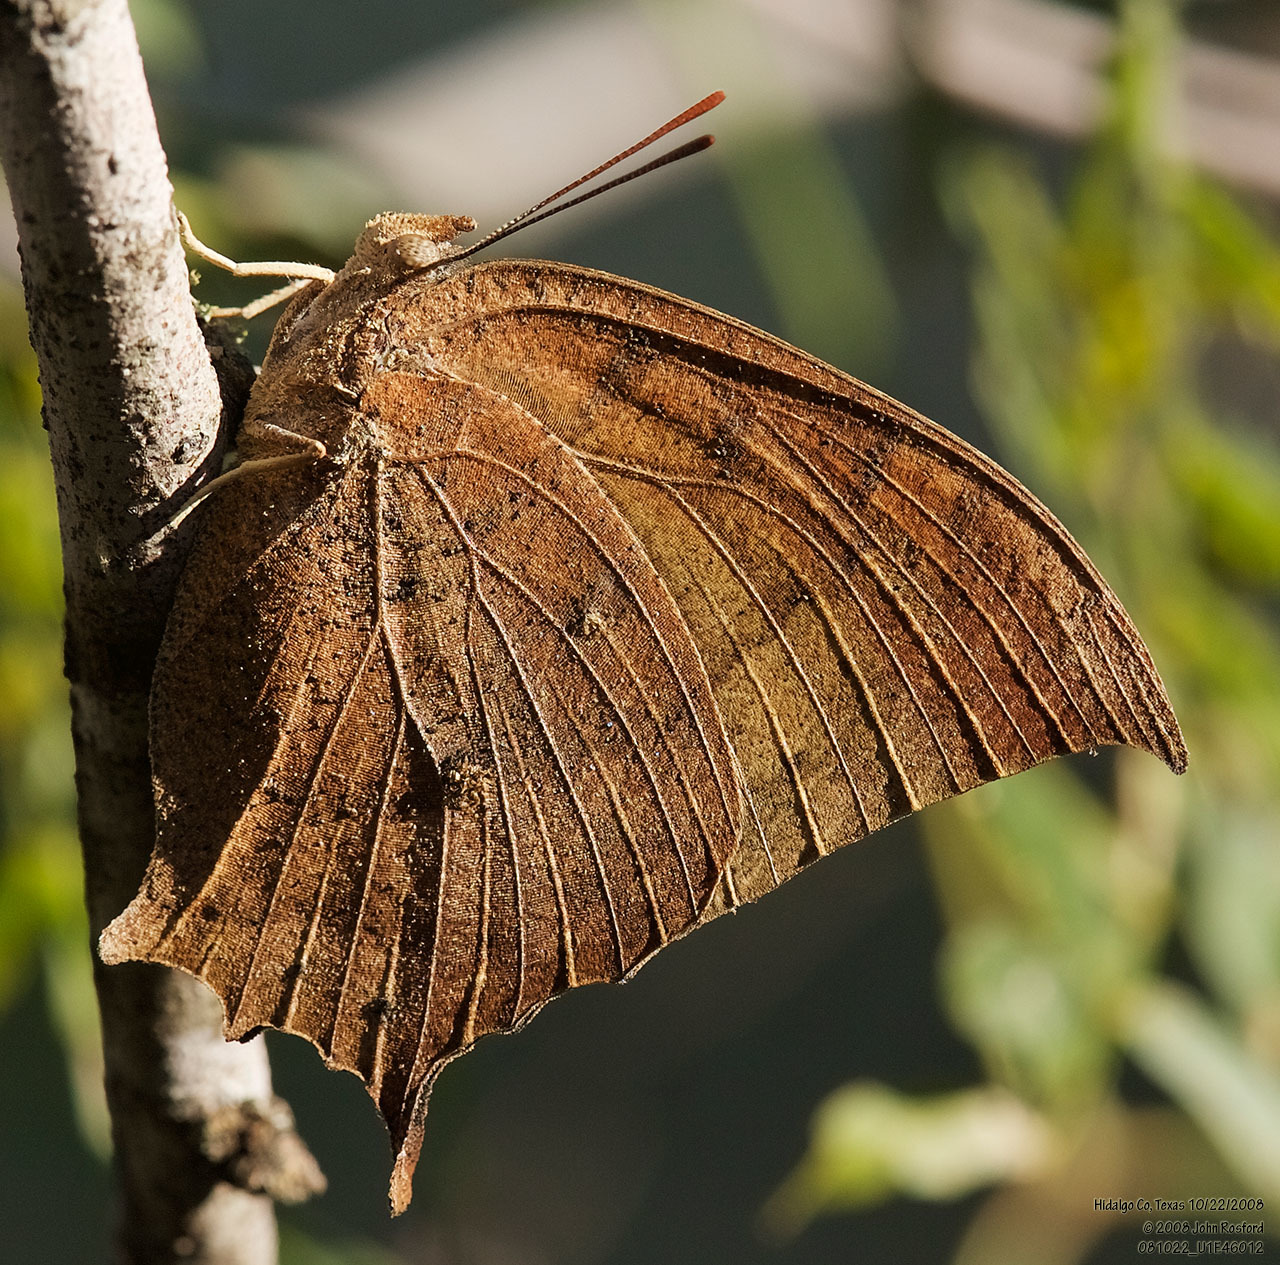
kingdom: Animalia
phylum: Arthropoda
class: Insecta
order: Lepidoptera
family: Nymphalidae
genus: Anaea
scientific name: Anaea aidea
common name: Tropical leafwing
